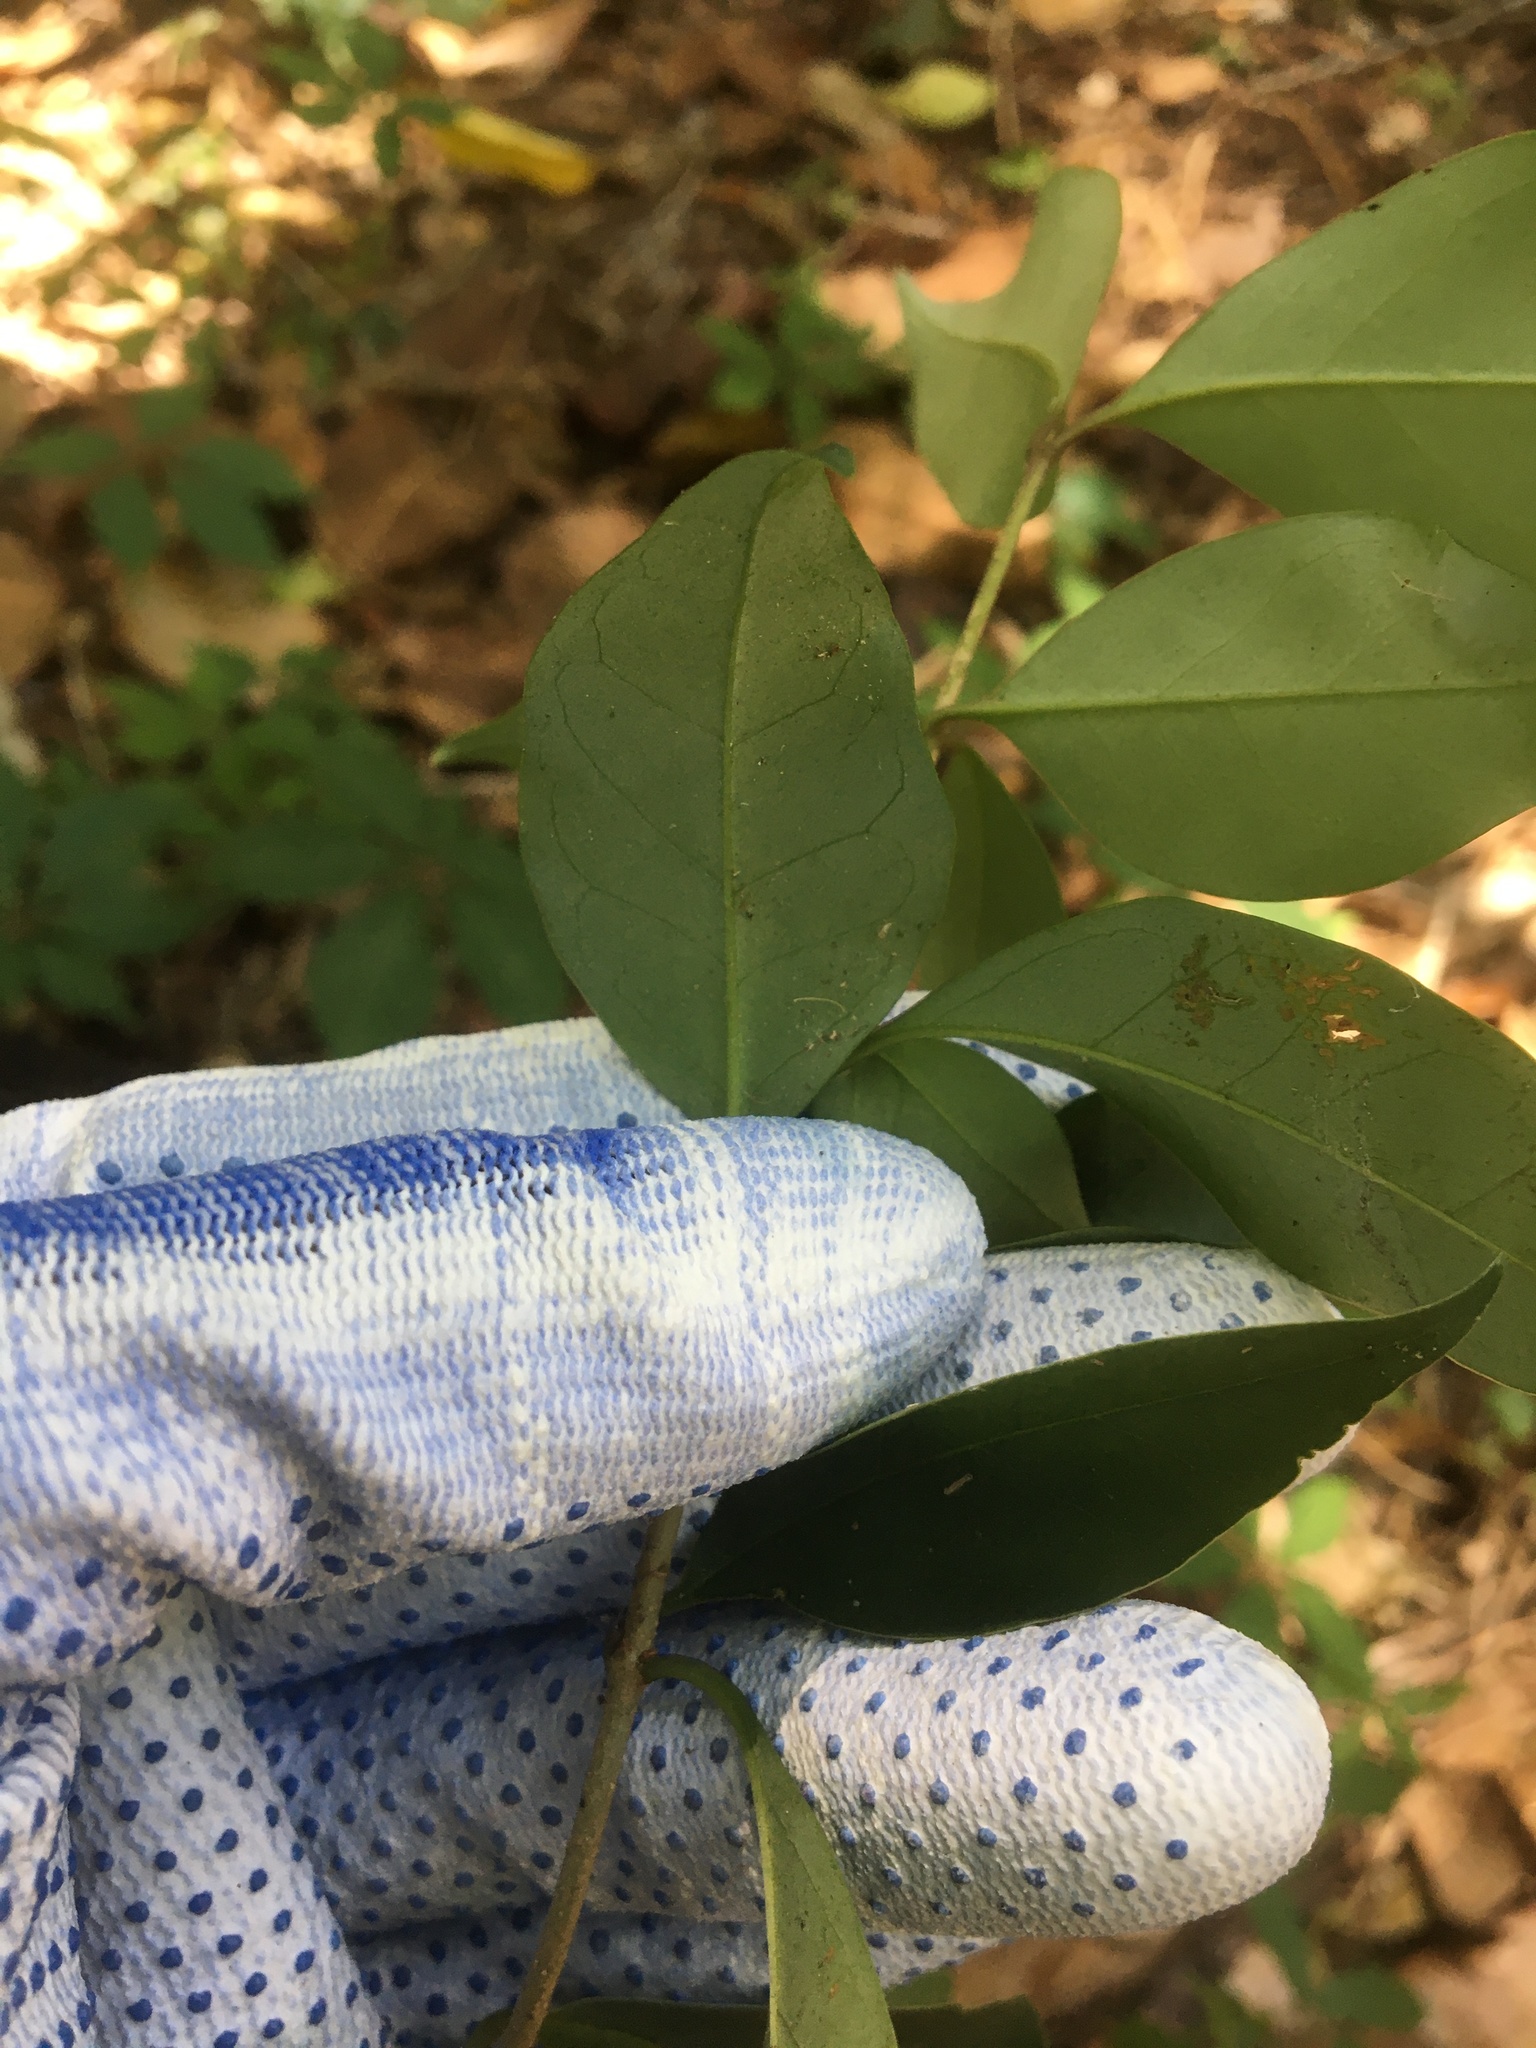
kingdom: Plantae
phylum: Tracheophyta
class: Magnoliopsida
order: Lamiales
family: Oleaceae
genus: Ligustrum
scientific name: Ligustrum lucidum
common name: Glossy privet
